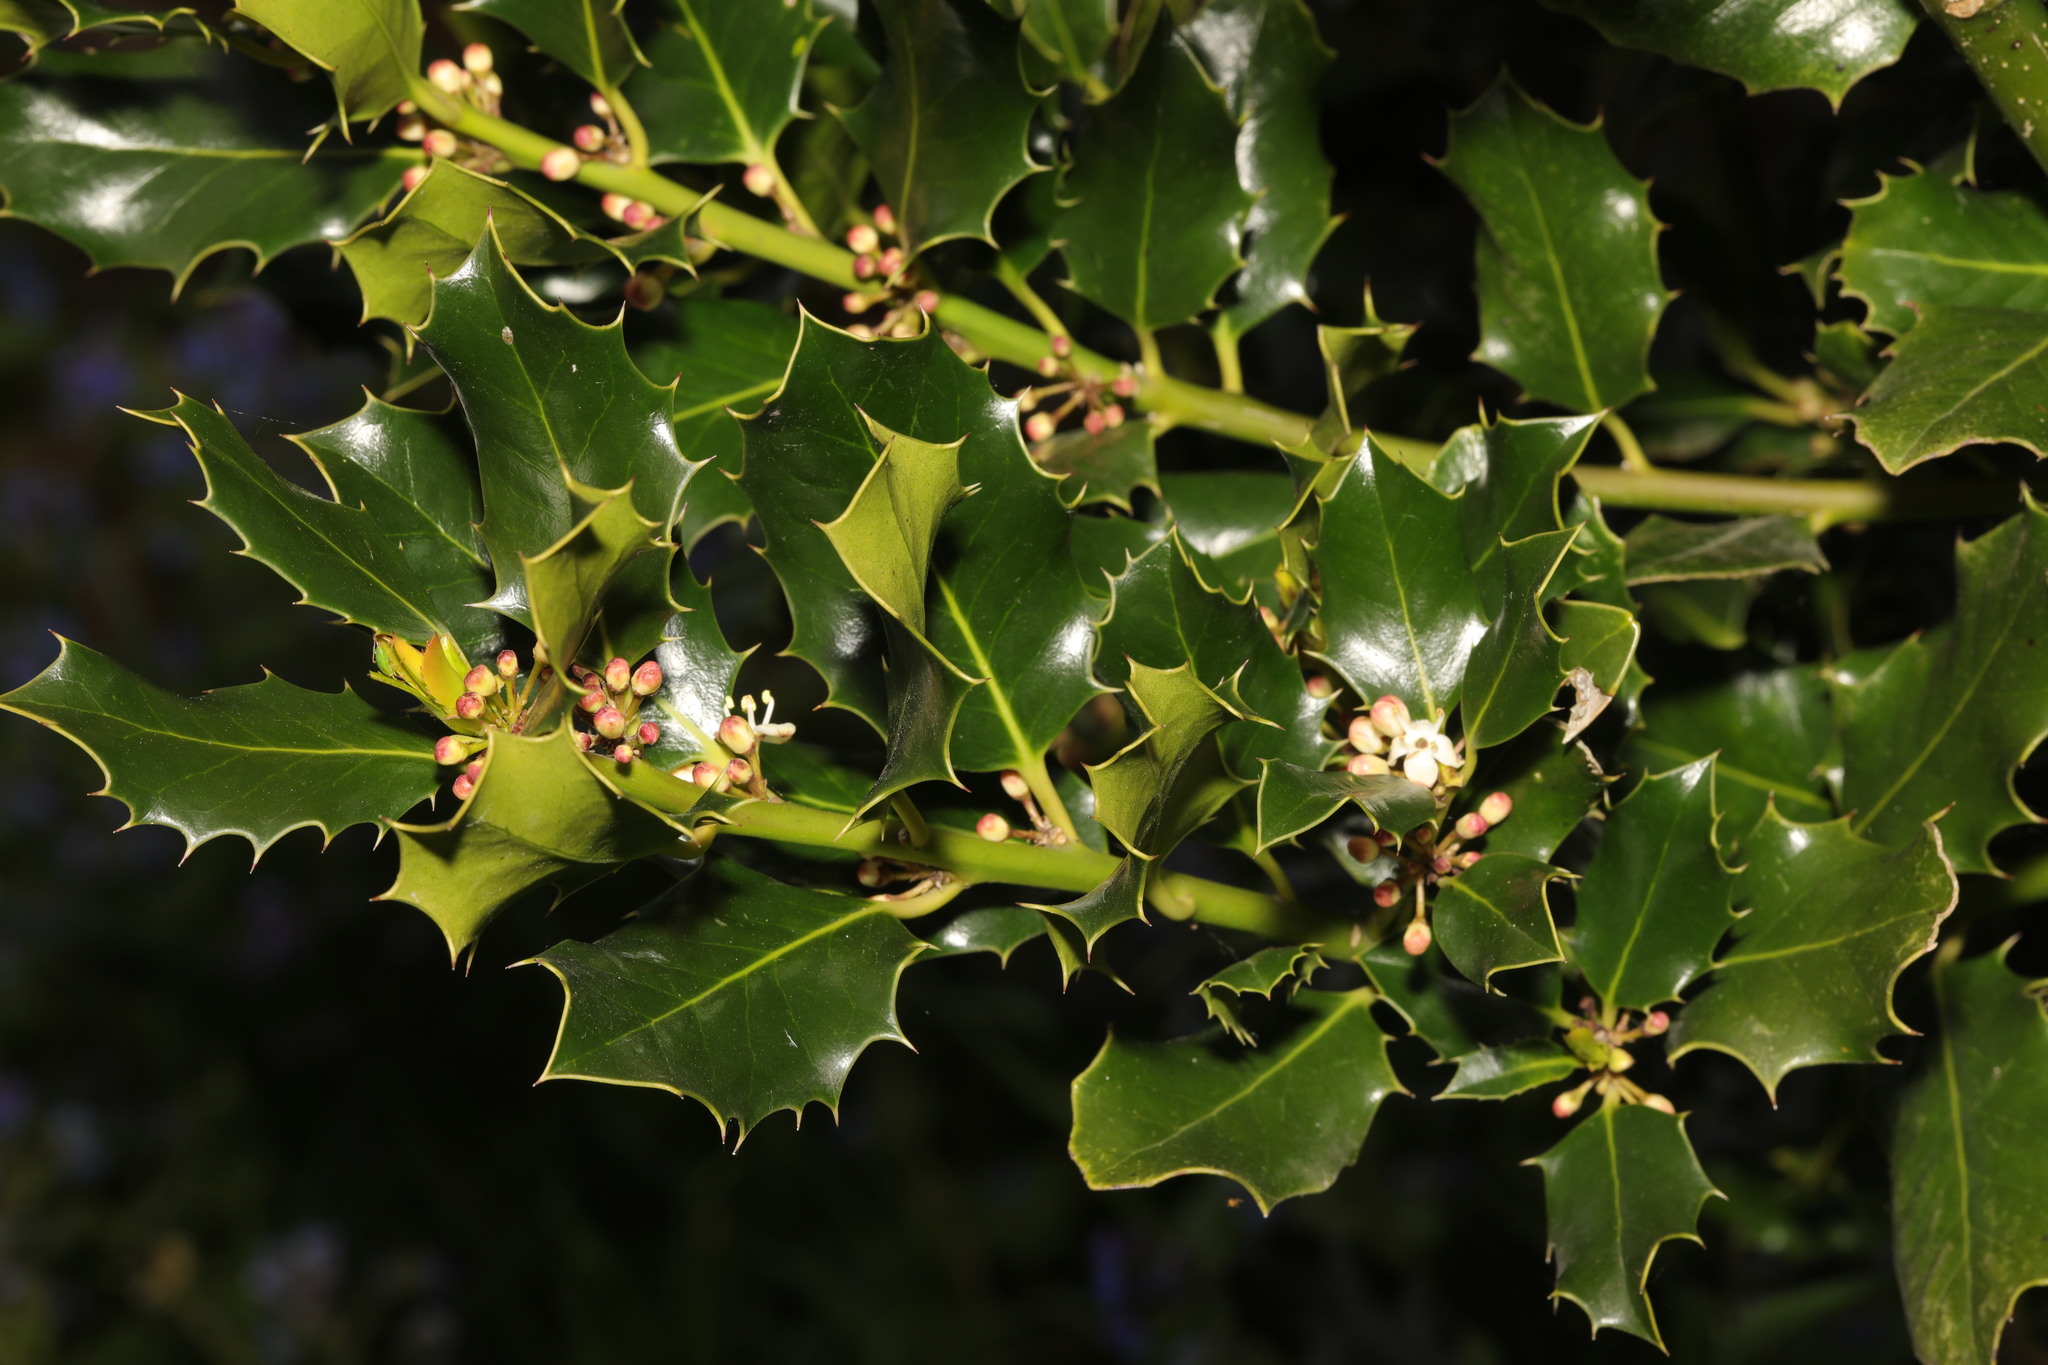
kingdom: Plantae
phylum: Tracheophyta
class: Magnoliopsida
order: Aquifoliales
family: Aquifoliaceae
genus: Ilex
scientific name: Ilex aquifolium
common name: English holly
